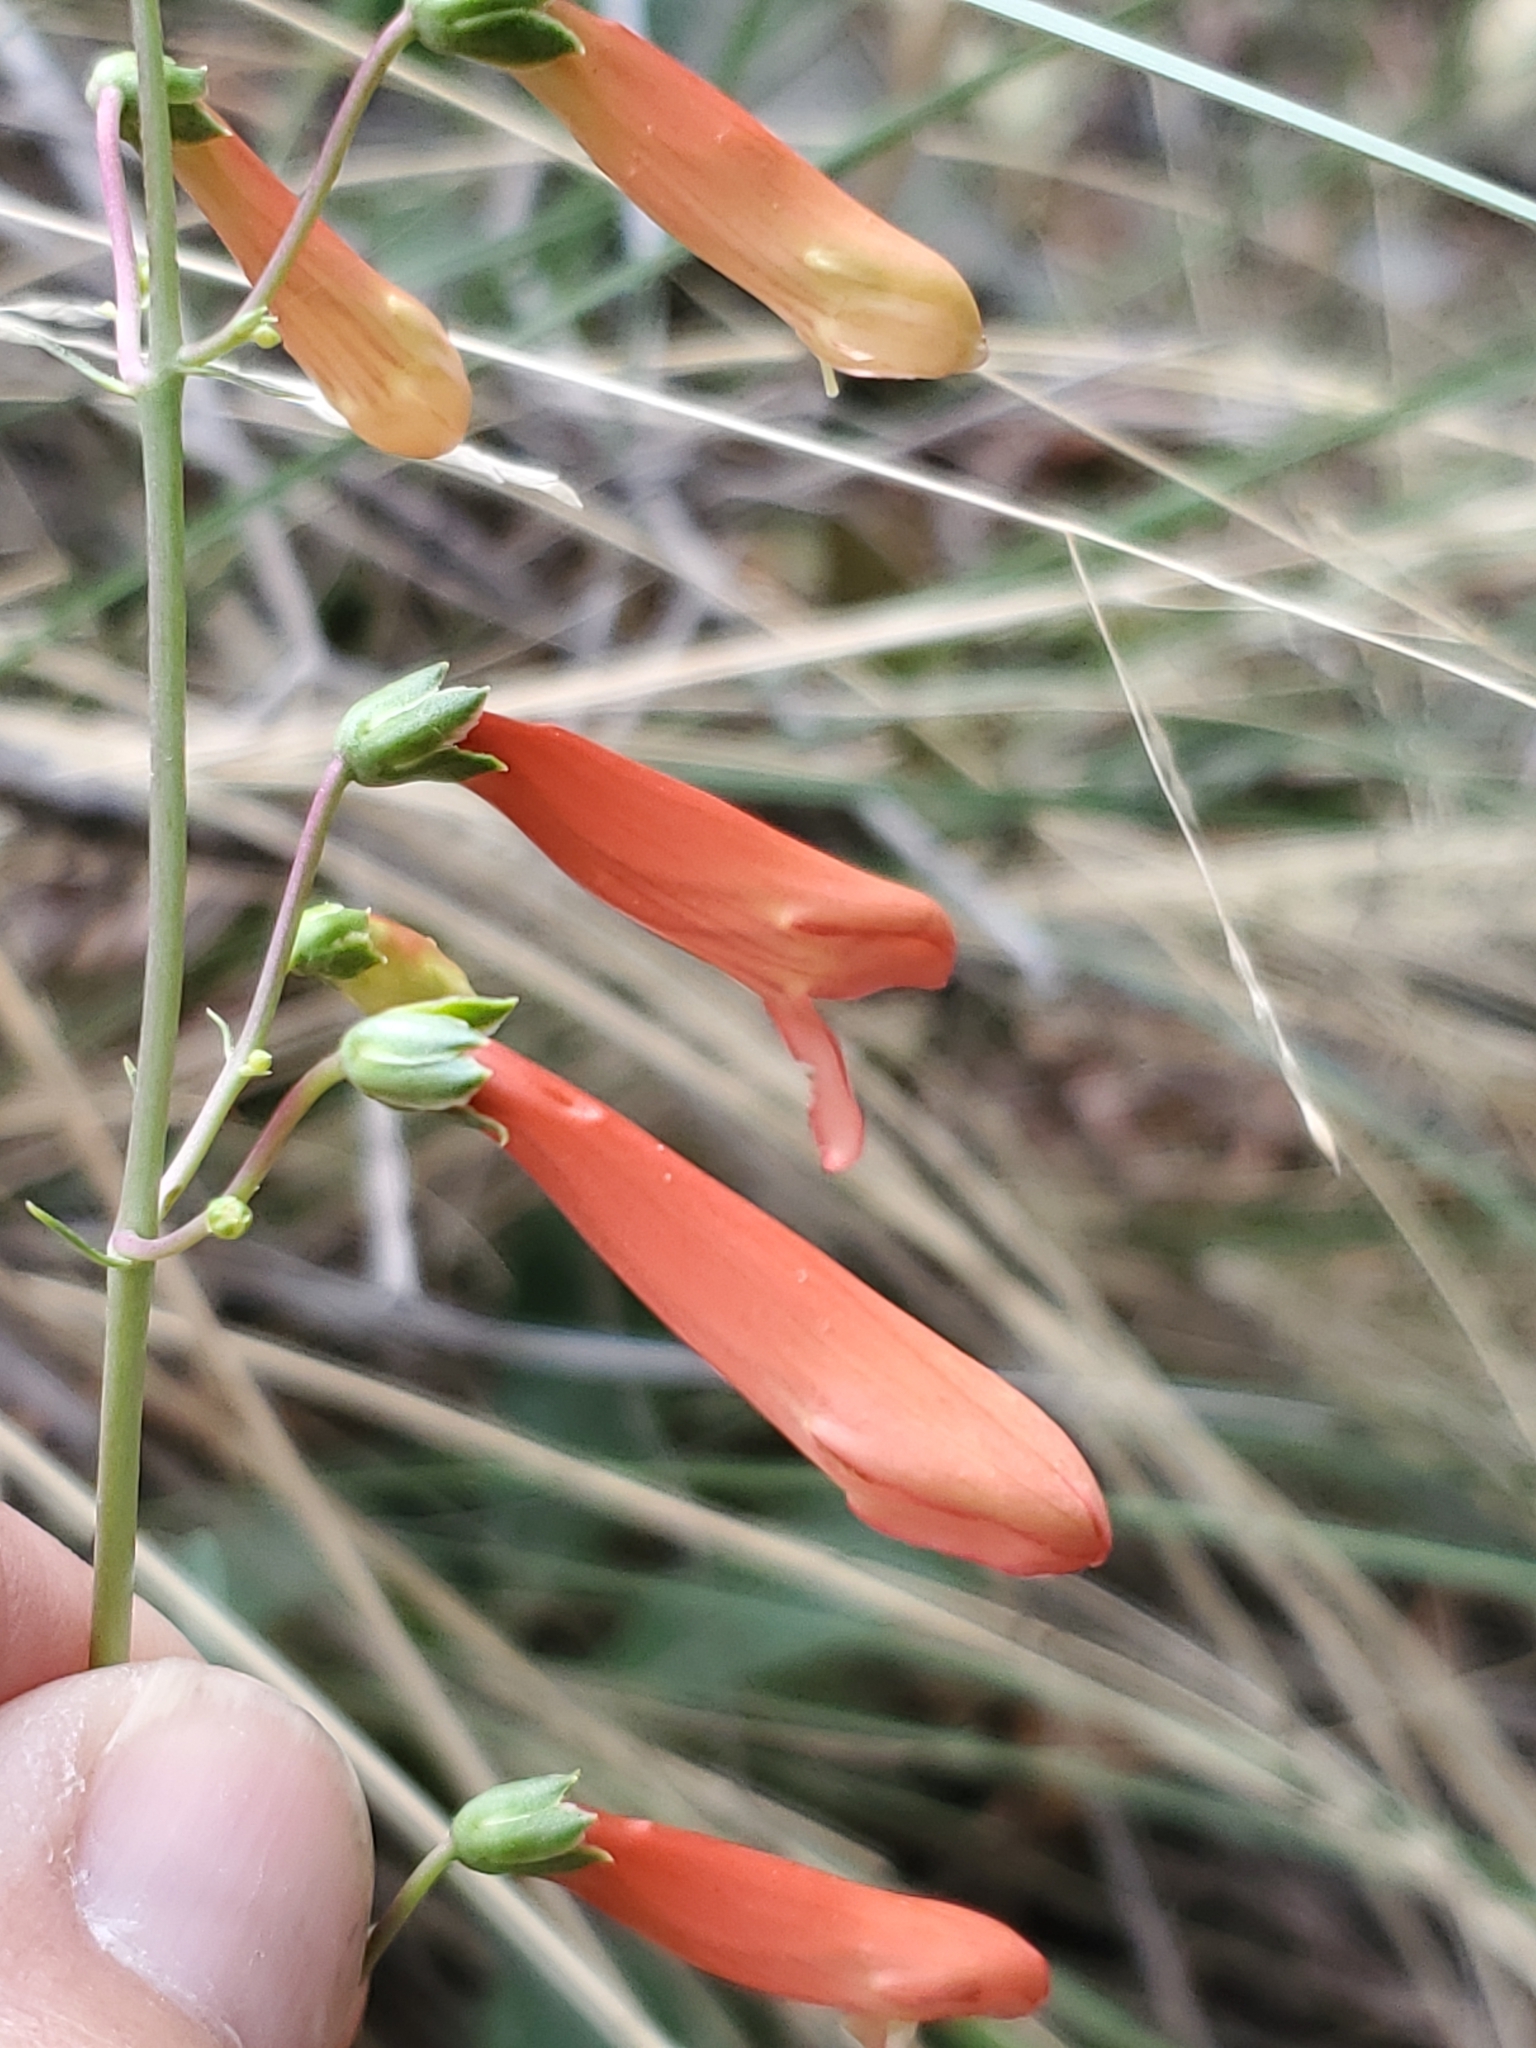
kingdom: Plantae
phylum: Tracheophyta
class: Magnoliopsida
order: Lamiales
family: Plantaginaceae
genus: Penstemon
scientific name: Penstemon barbatus
